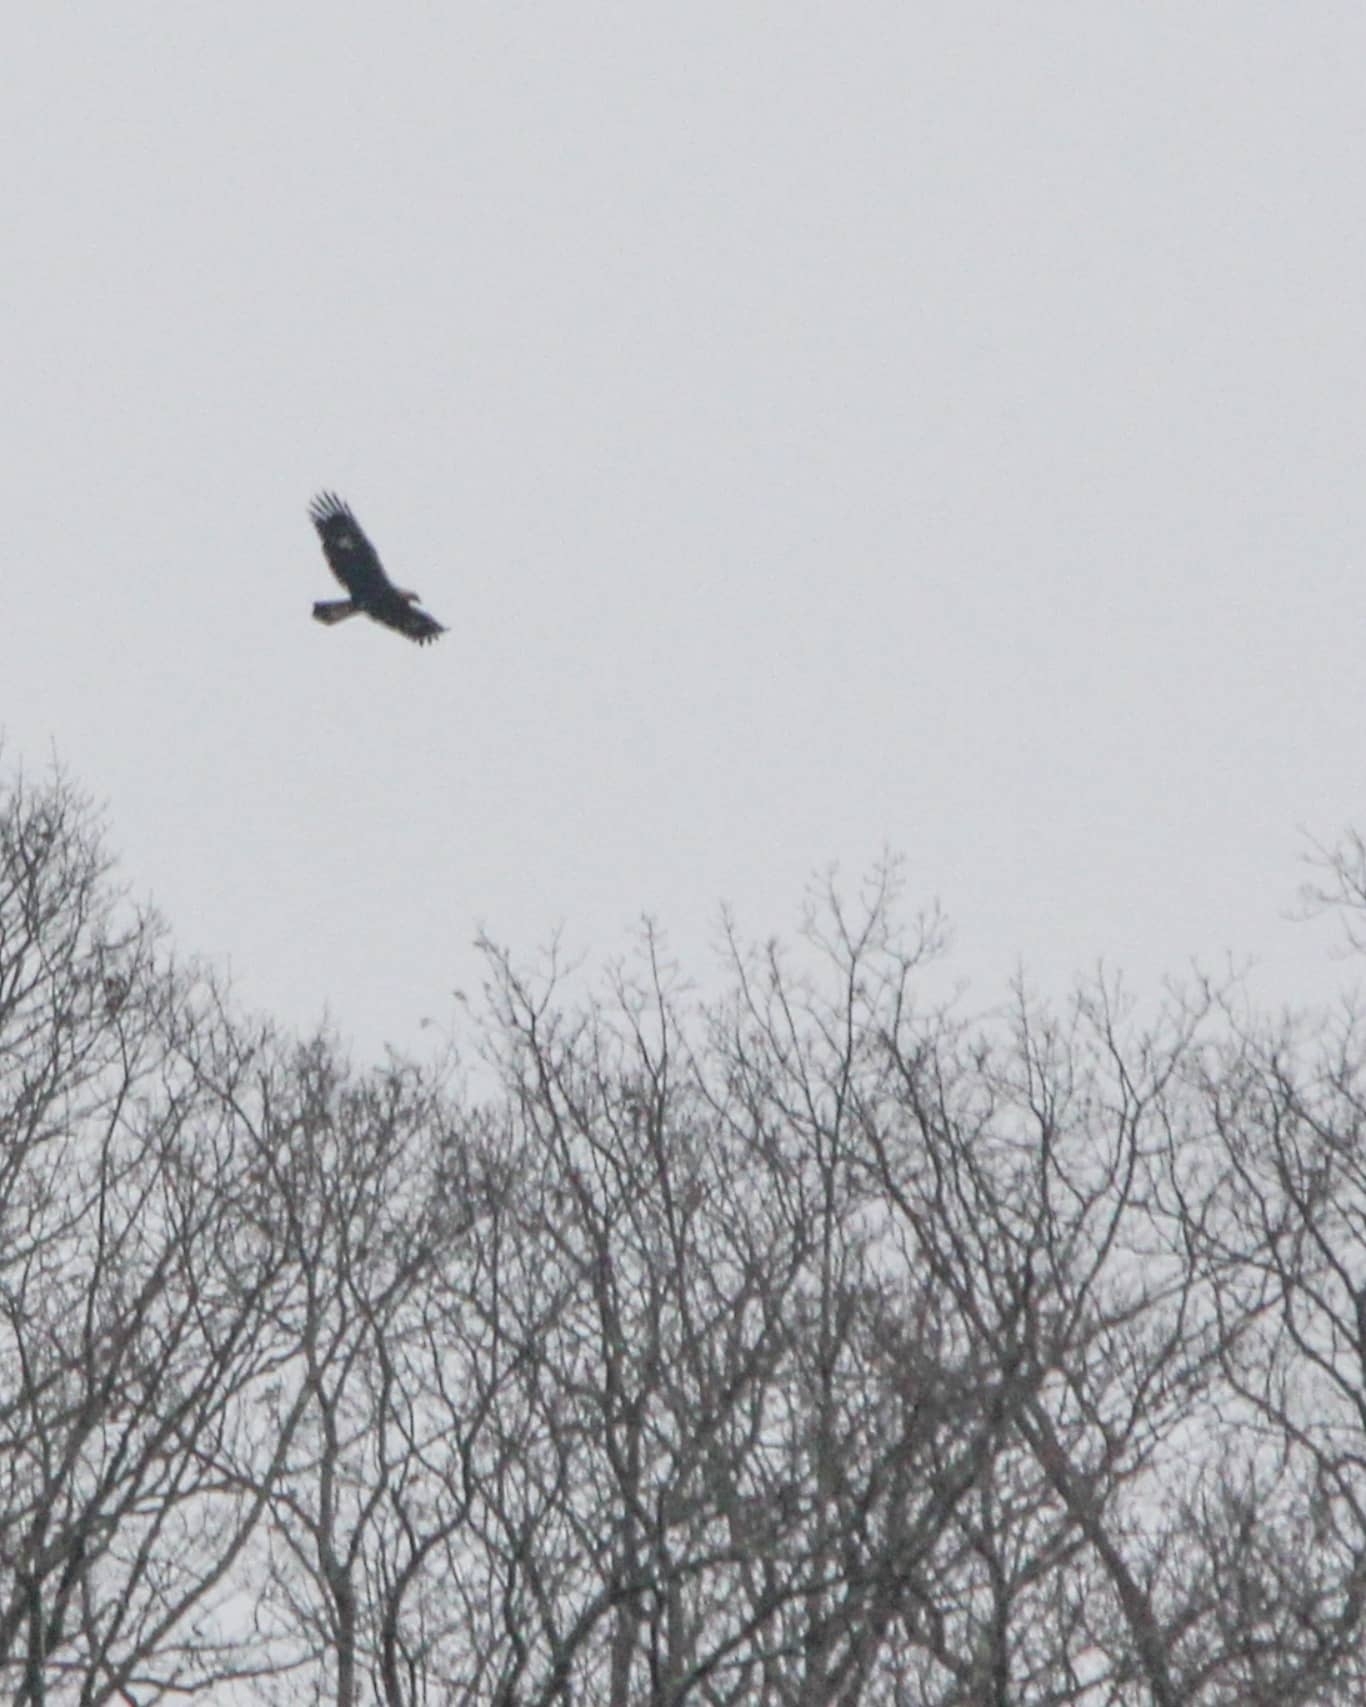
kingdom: Animalia
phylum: Chordata
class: Aves
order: Accipitriformes
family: Accipitridae
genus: Aquila
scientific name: Aquila chrysaetos
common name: Golden eagle
